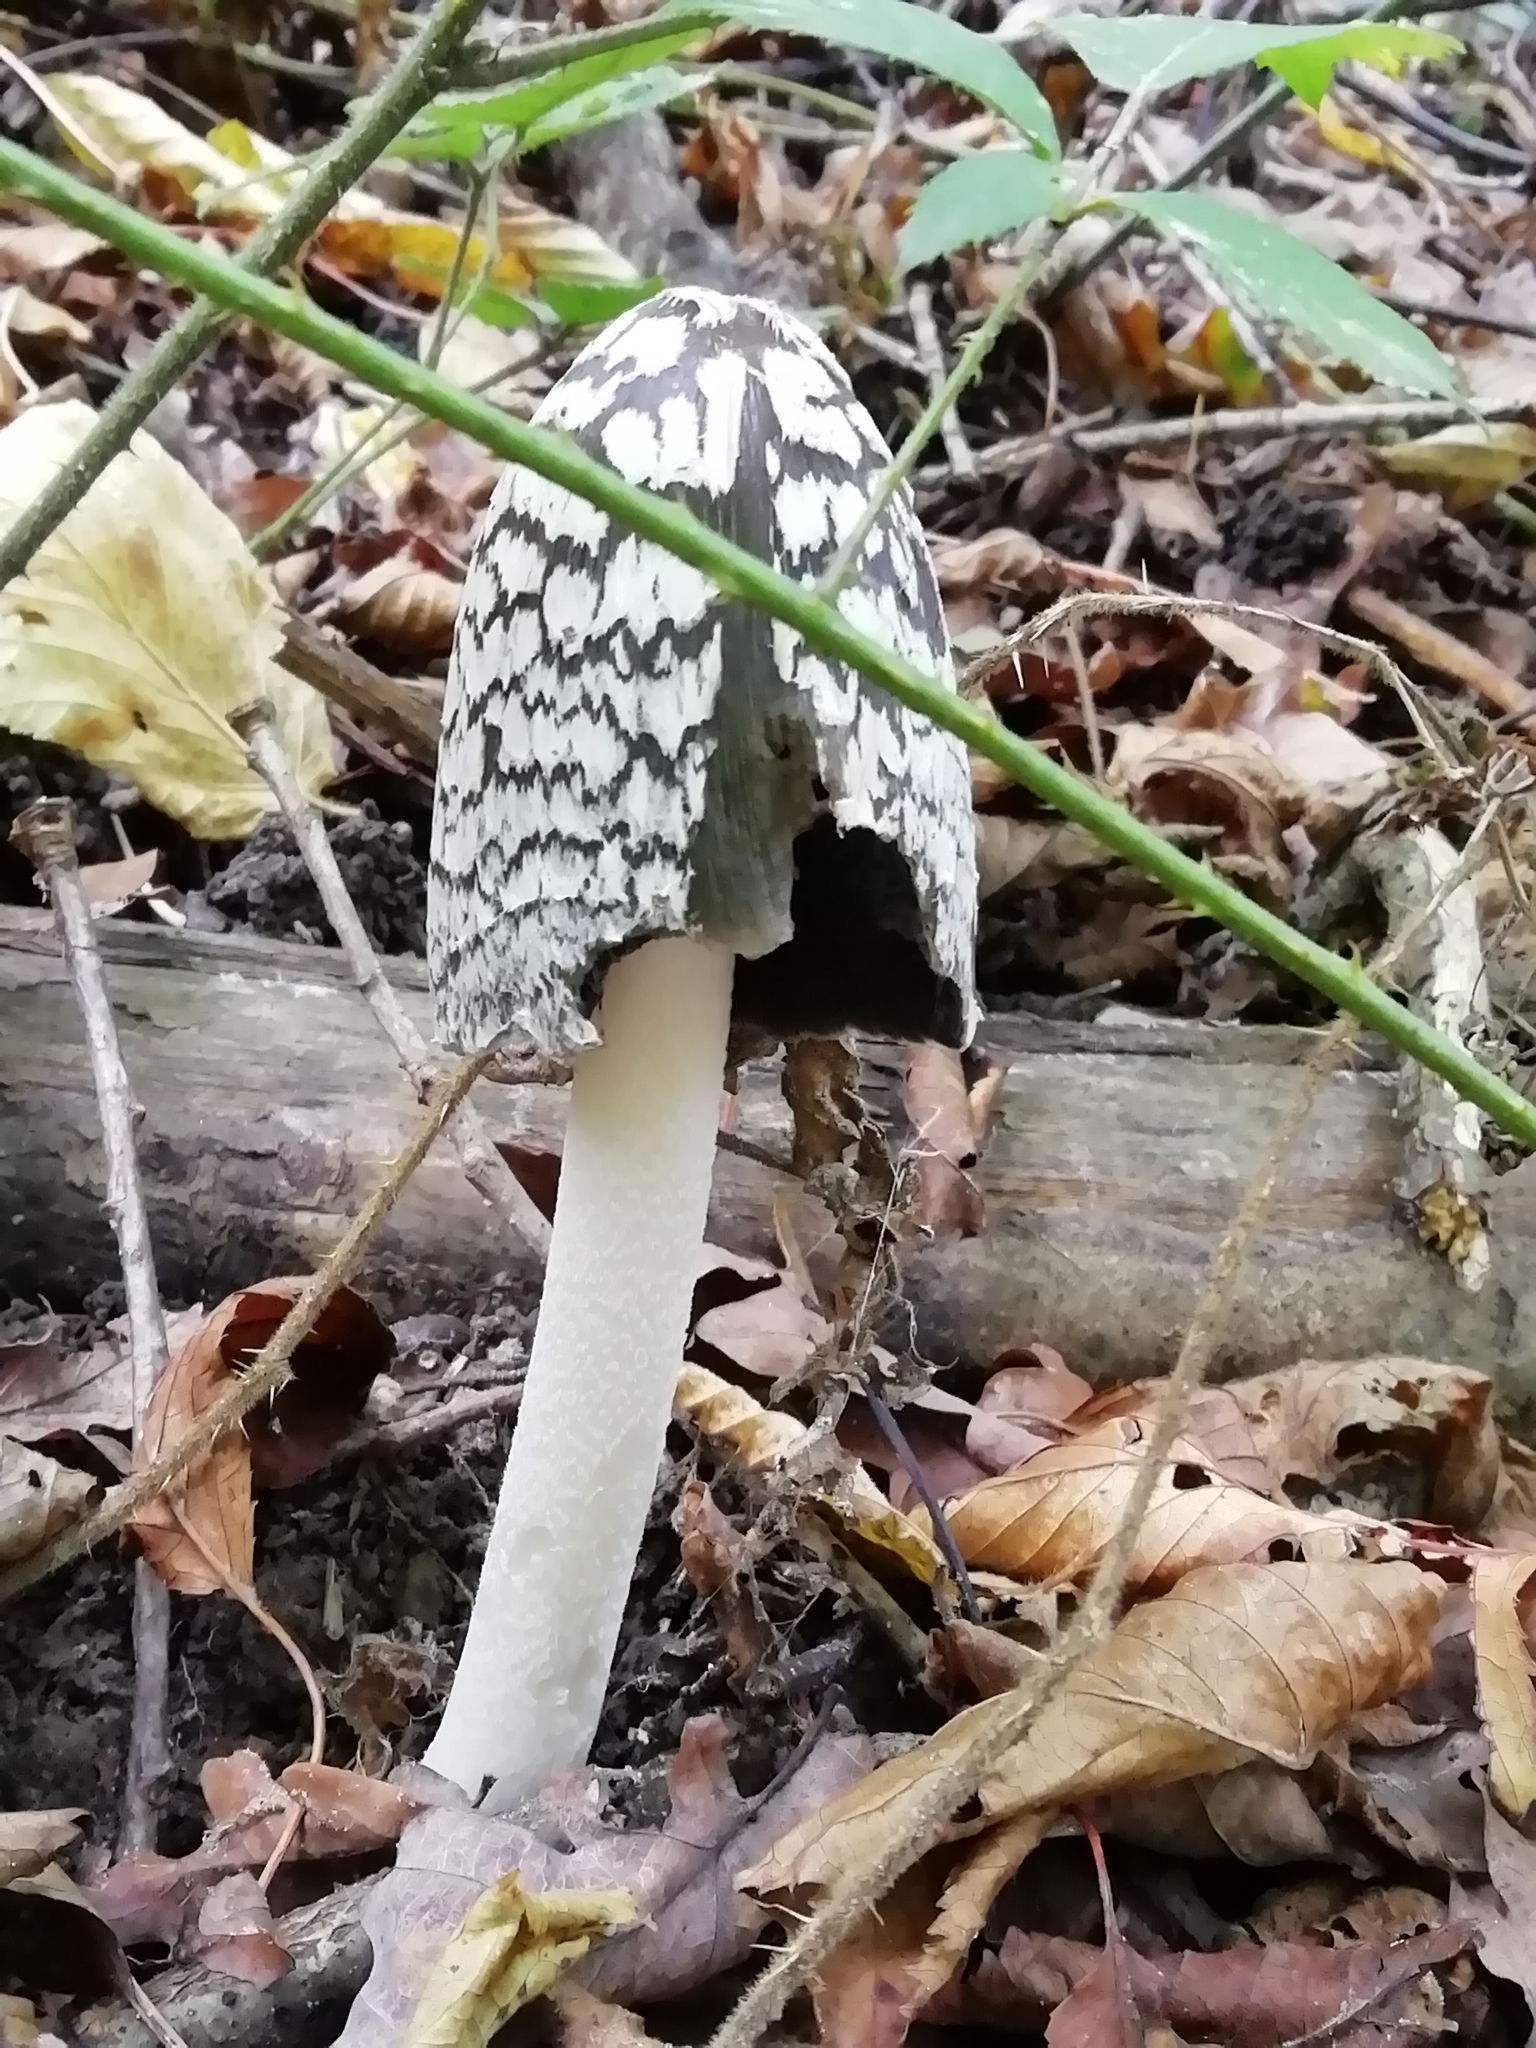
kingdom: Fungi
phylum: Basidiomycota
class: Agaricomycetes
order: Agaricales
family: Psathyrellaceae
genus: Coprinopsis
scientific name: Coprinopsis picacea
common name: Magpie inkcap
